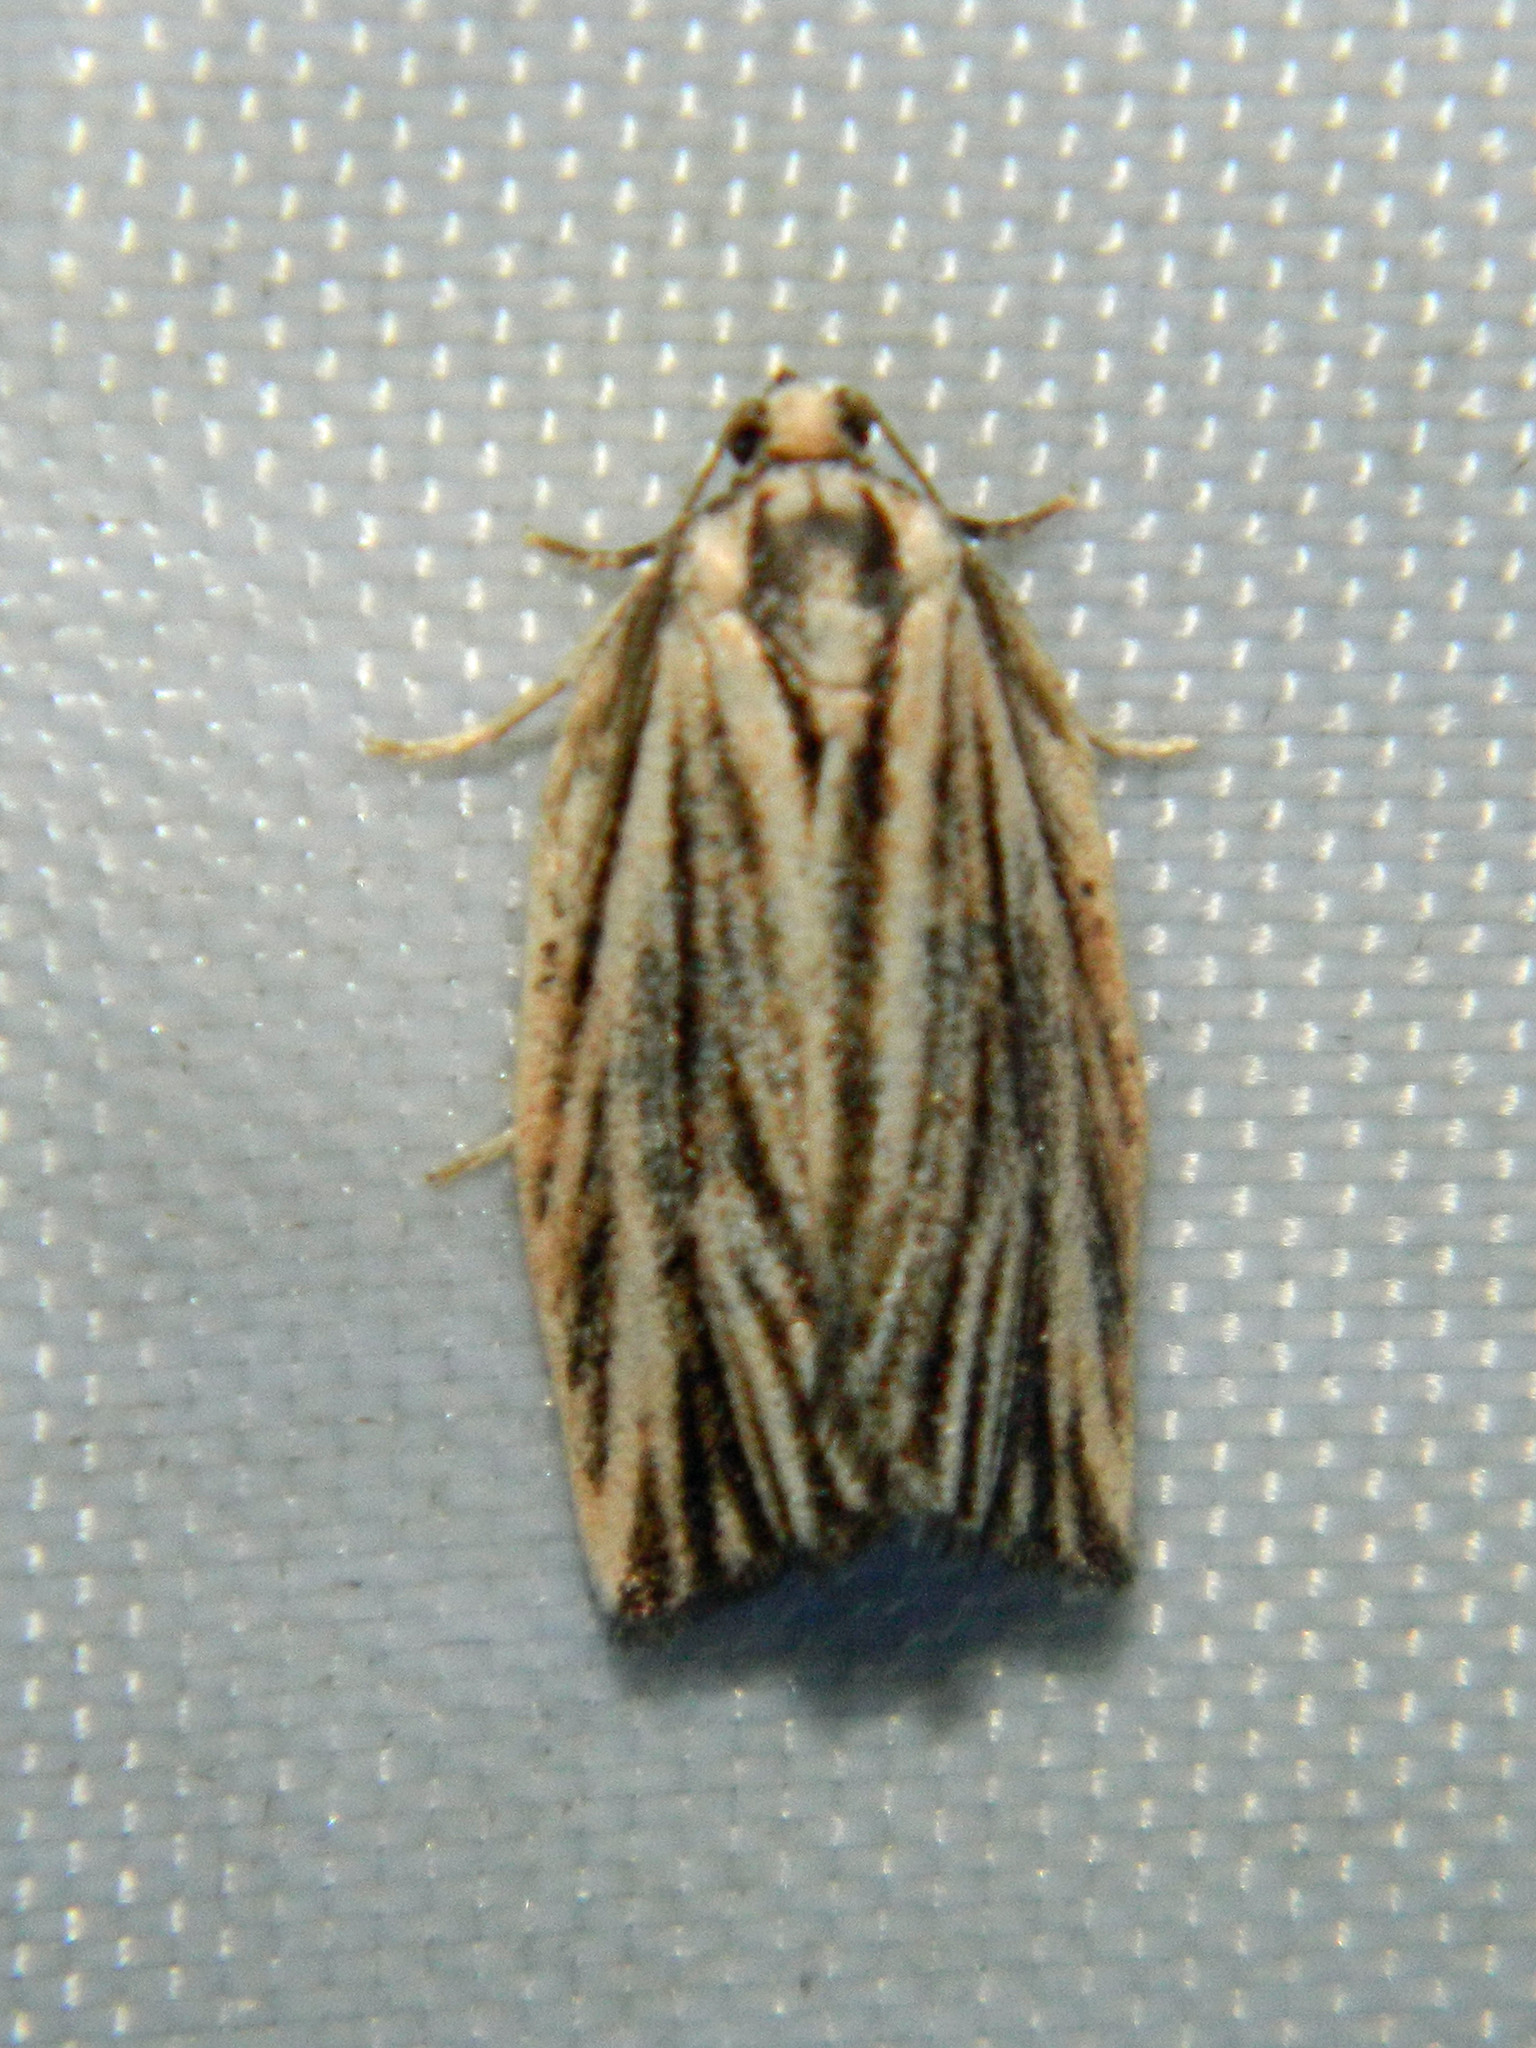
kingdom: Animalia
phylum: Arthropoda
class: Insecta
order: Lepidoptera
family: Tortricidae
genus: Archips
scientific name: Archips strianus
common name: Striated tortrix moth
